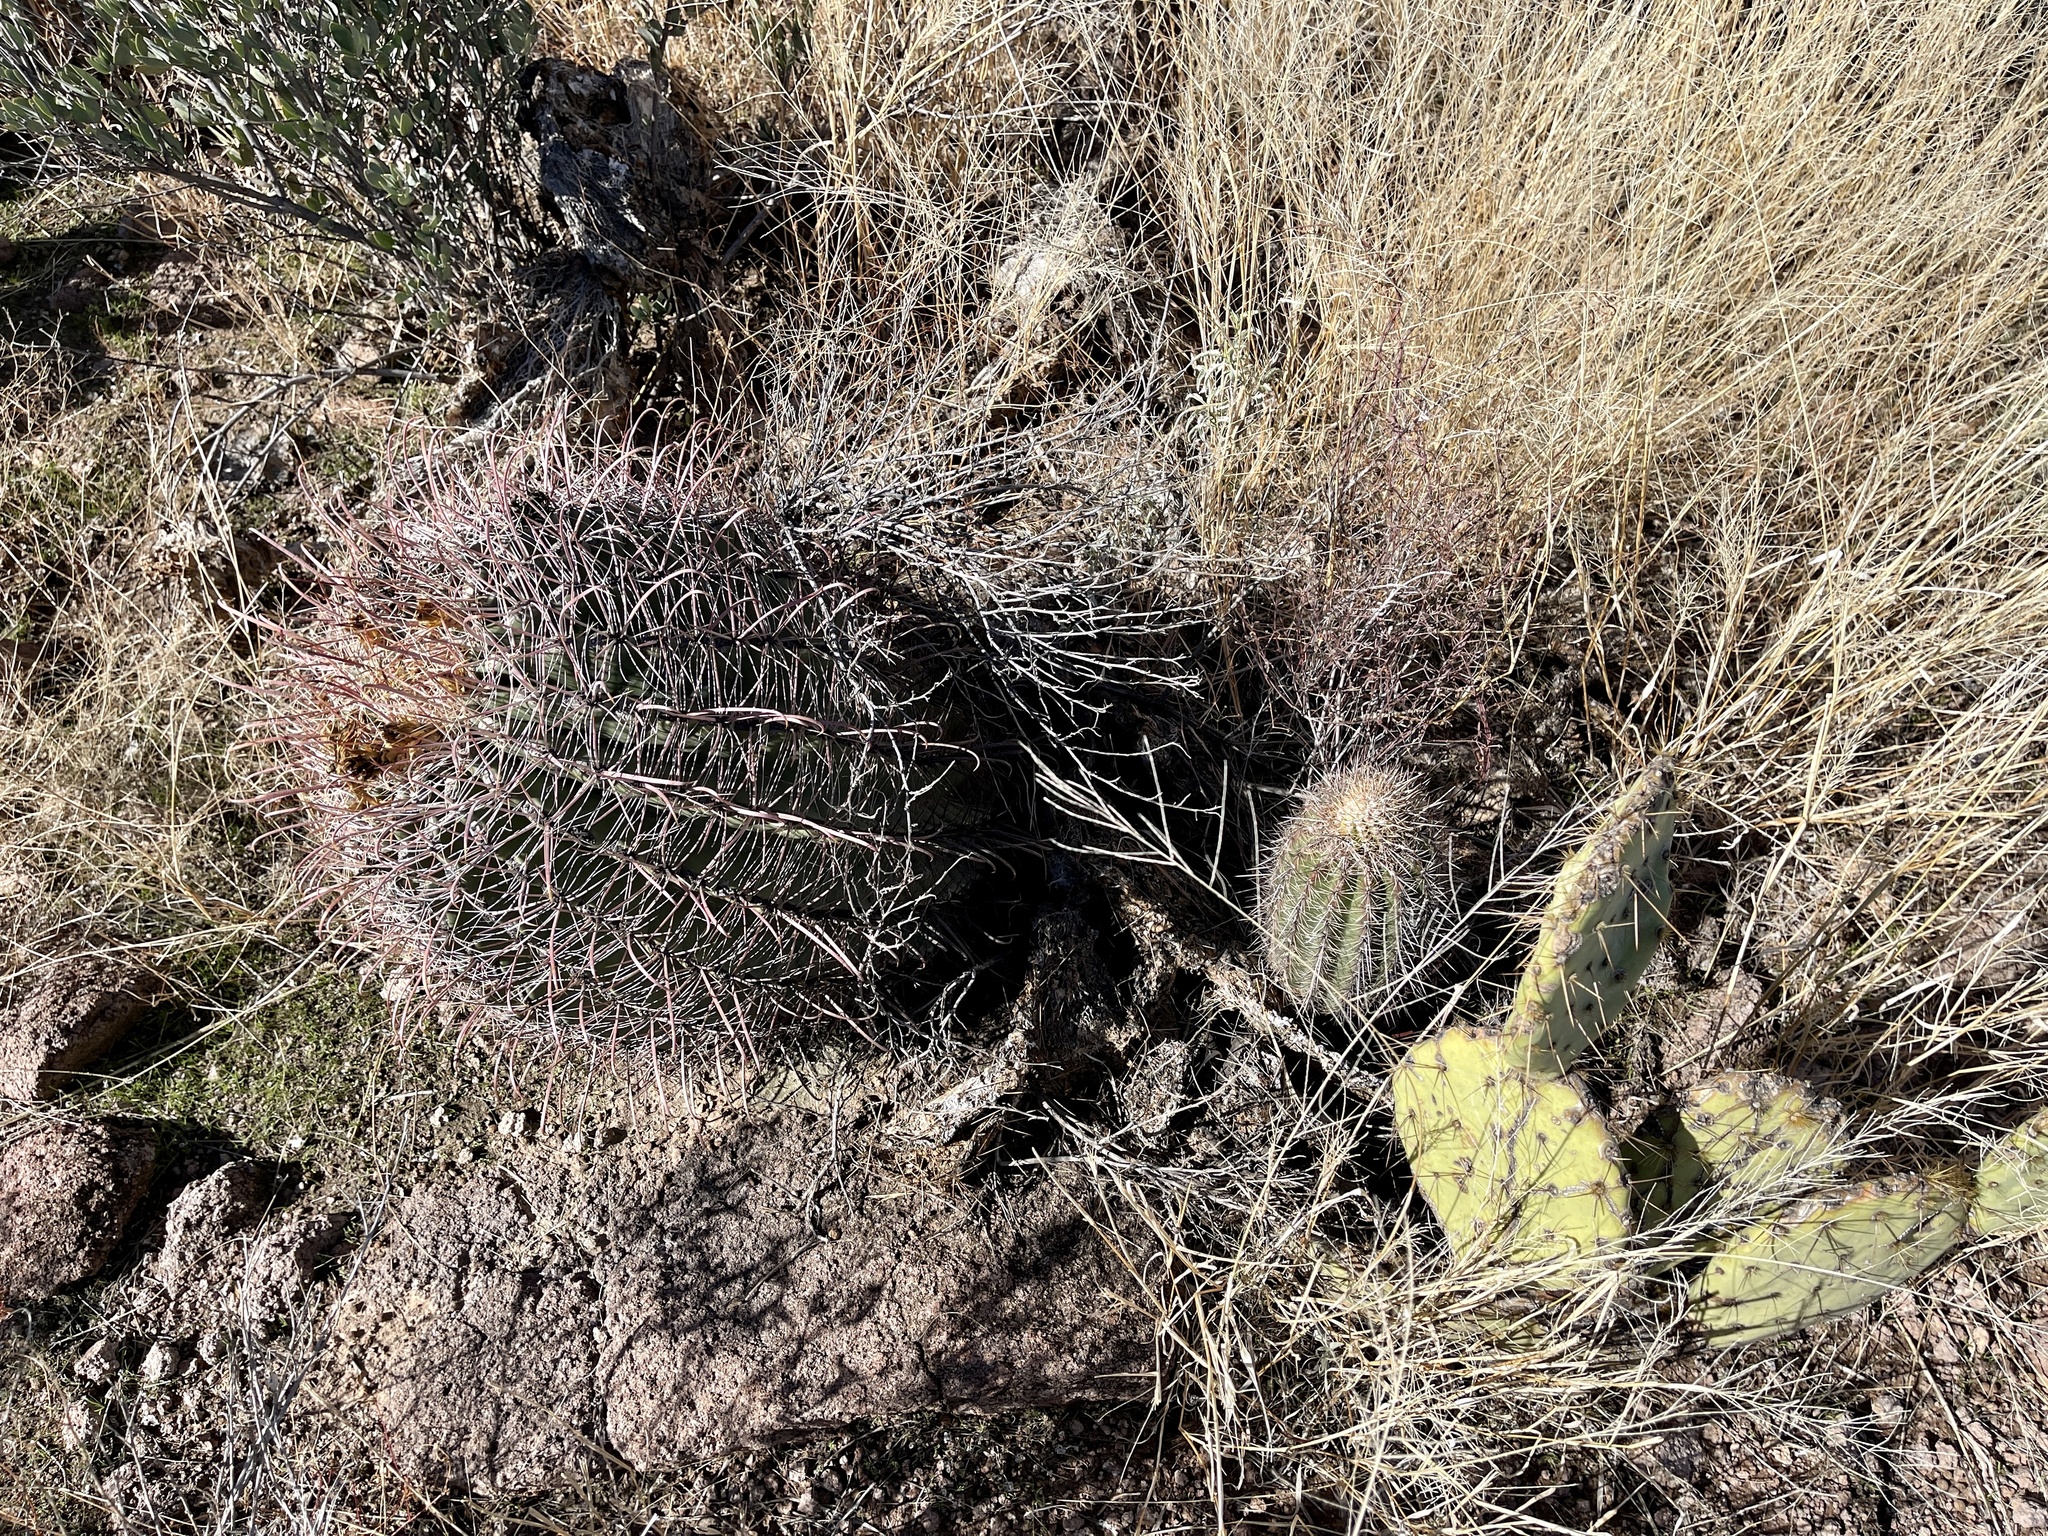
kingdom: Plantae
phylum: Tracheophyta
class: Magnoliopsida
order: Caryophyllales
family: Cactaceae
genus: Carnegiea
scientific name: Carnegiea gigantea
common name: Saguaro
